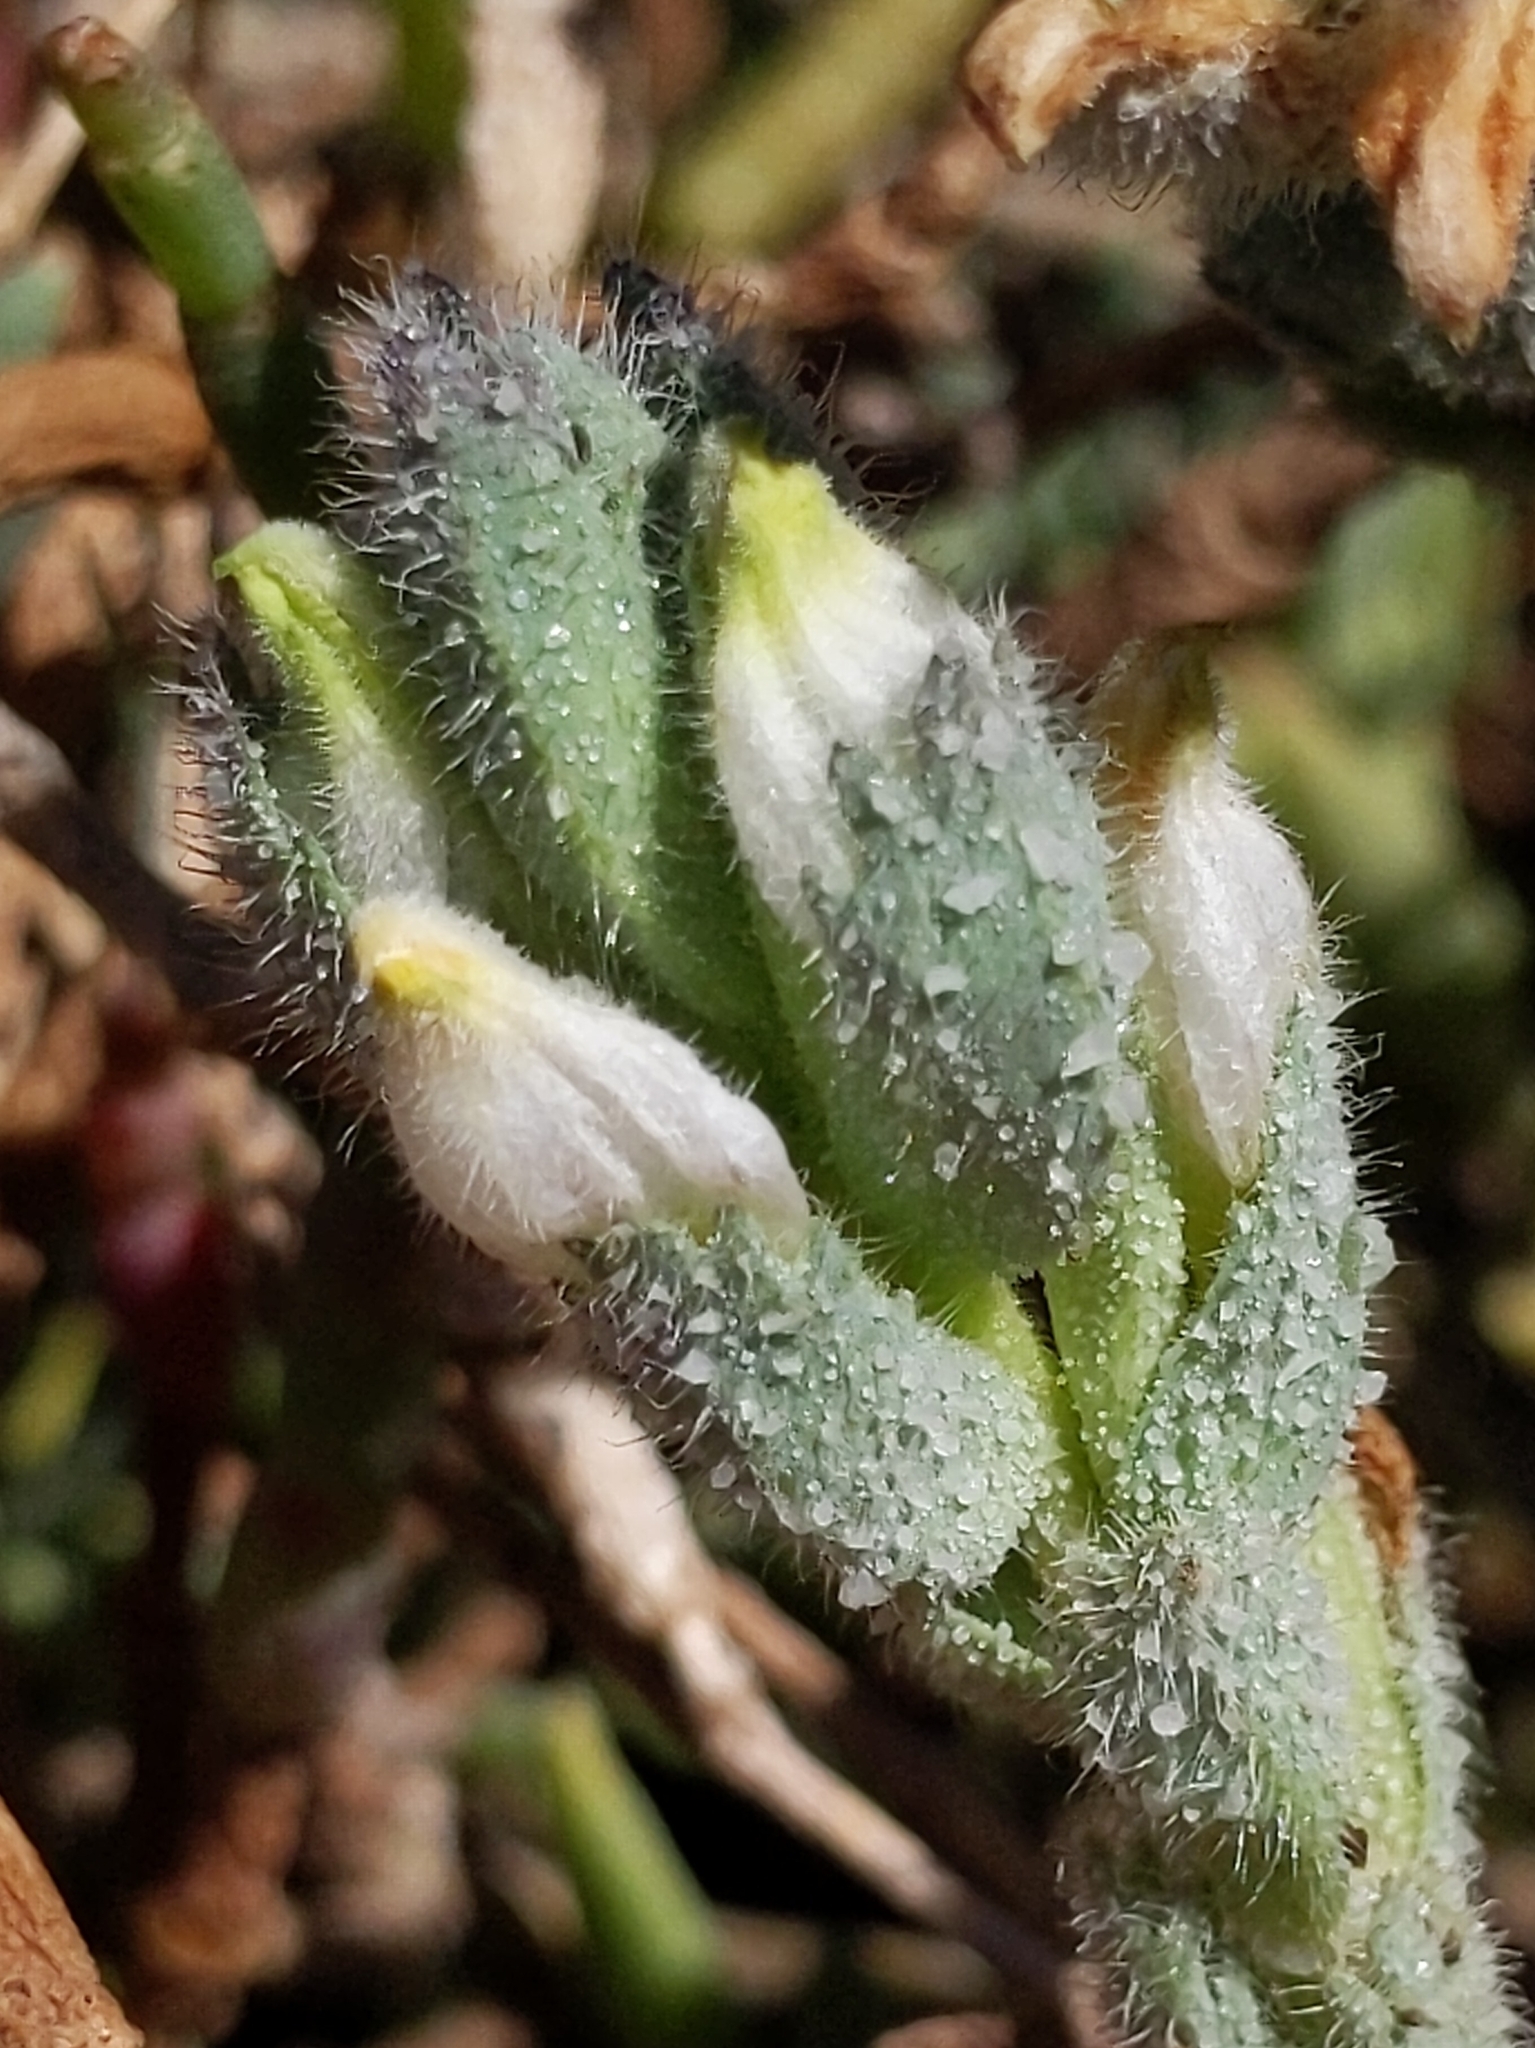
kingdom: Plantae
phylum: Tracheophyta
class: Magnoliopsida
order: Lamiales
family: Orobanchaceae
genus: Chloropyron
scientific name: Chloropyron maritimum
